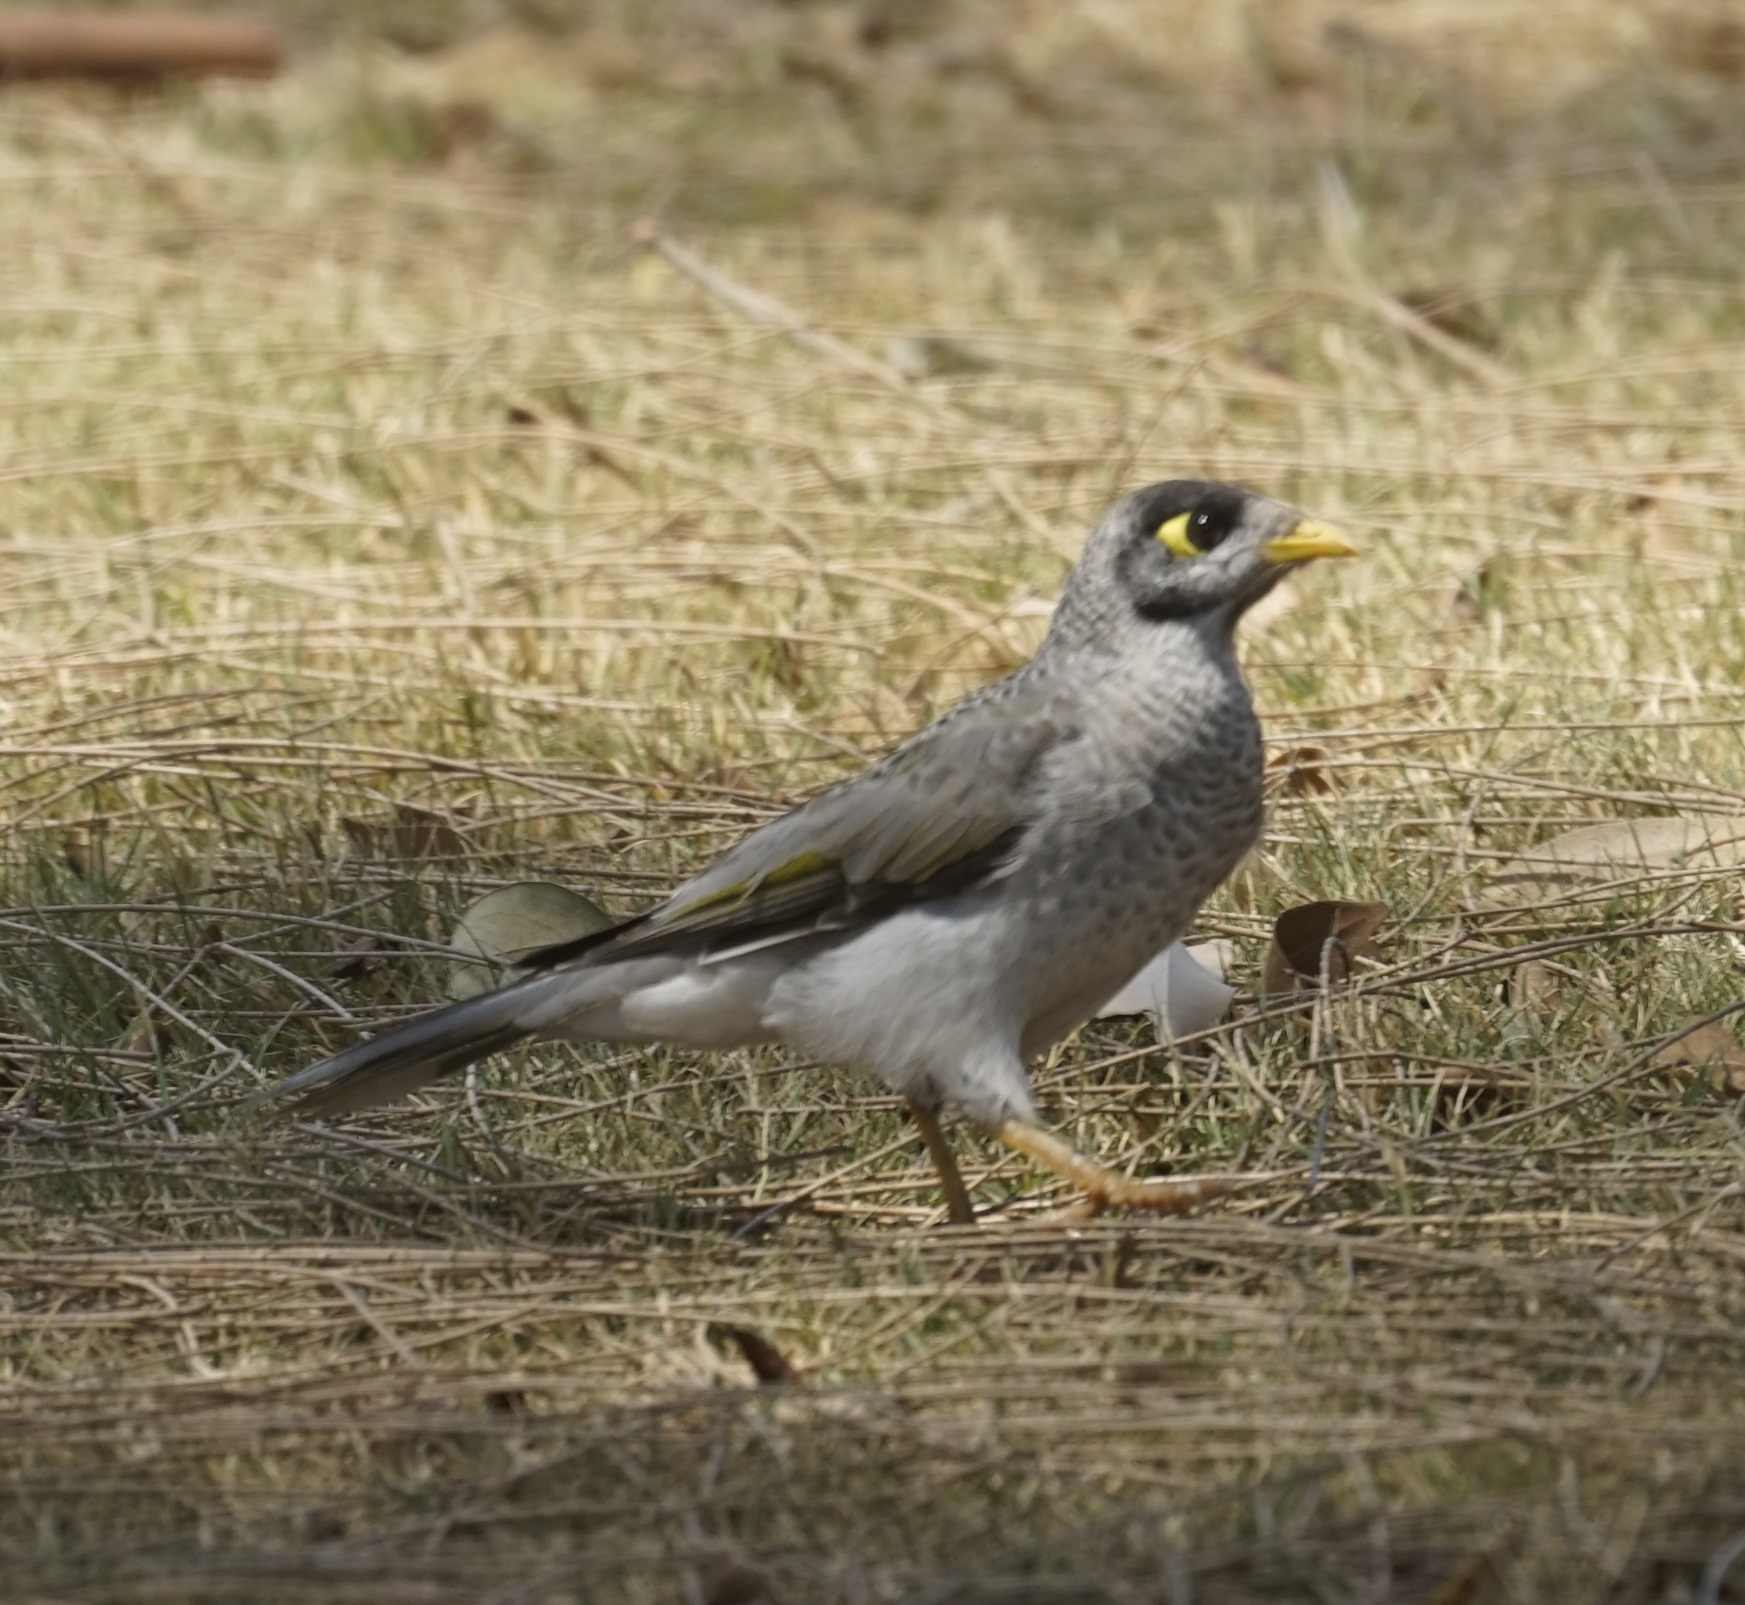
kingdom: Animalia
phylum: Chordata
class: Aves
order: Passeriformes
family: Meliphagidae
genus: Manorina
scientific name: Manorina melanocephala
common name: Noisy miner
